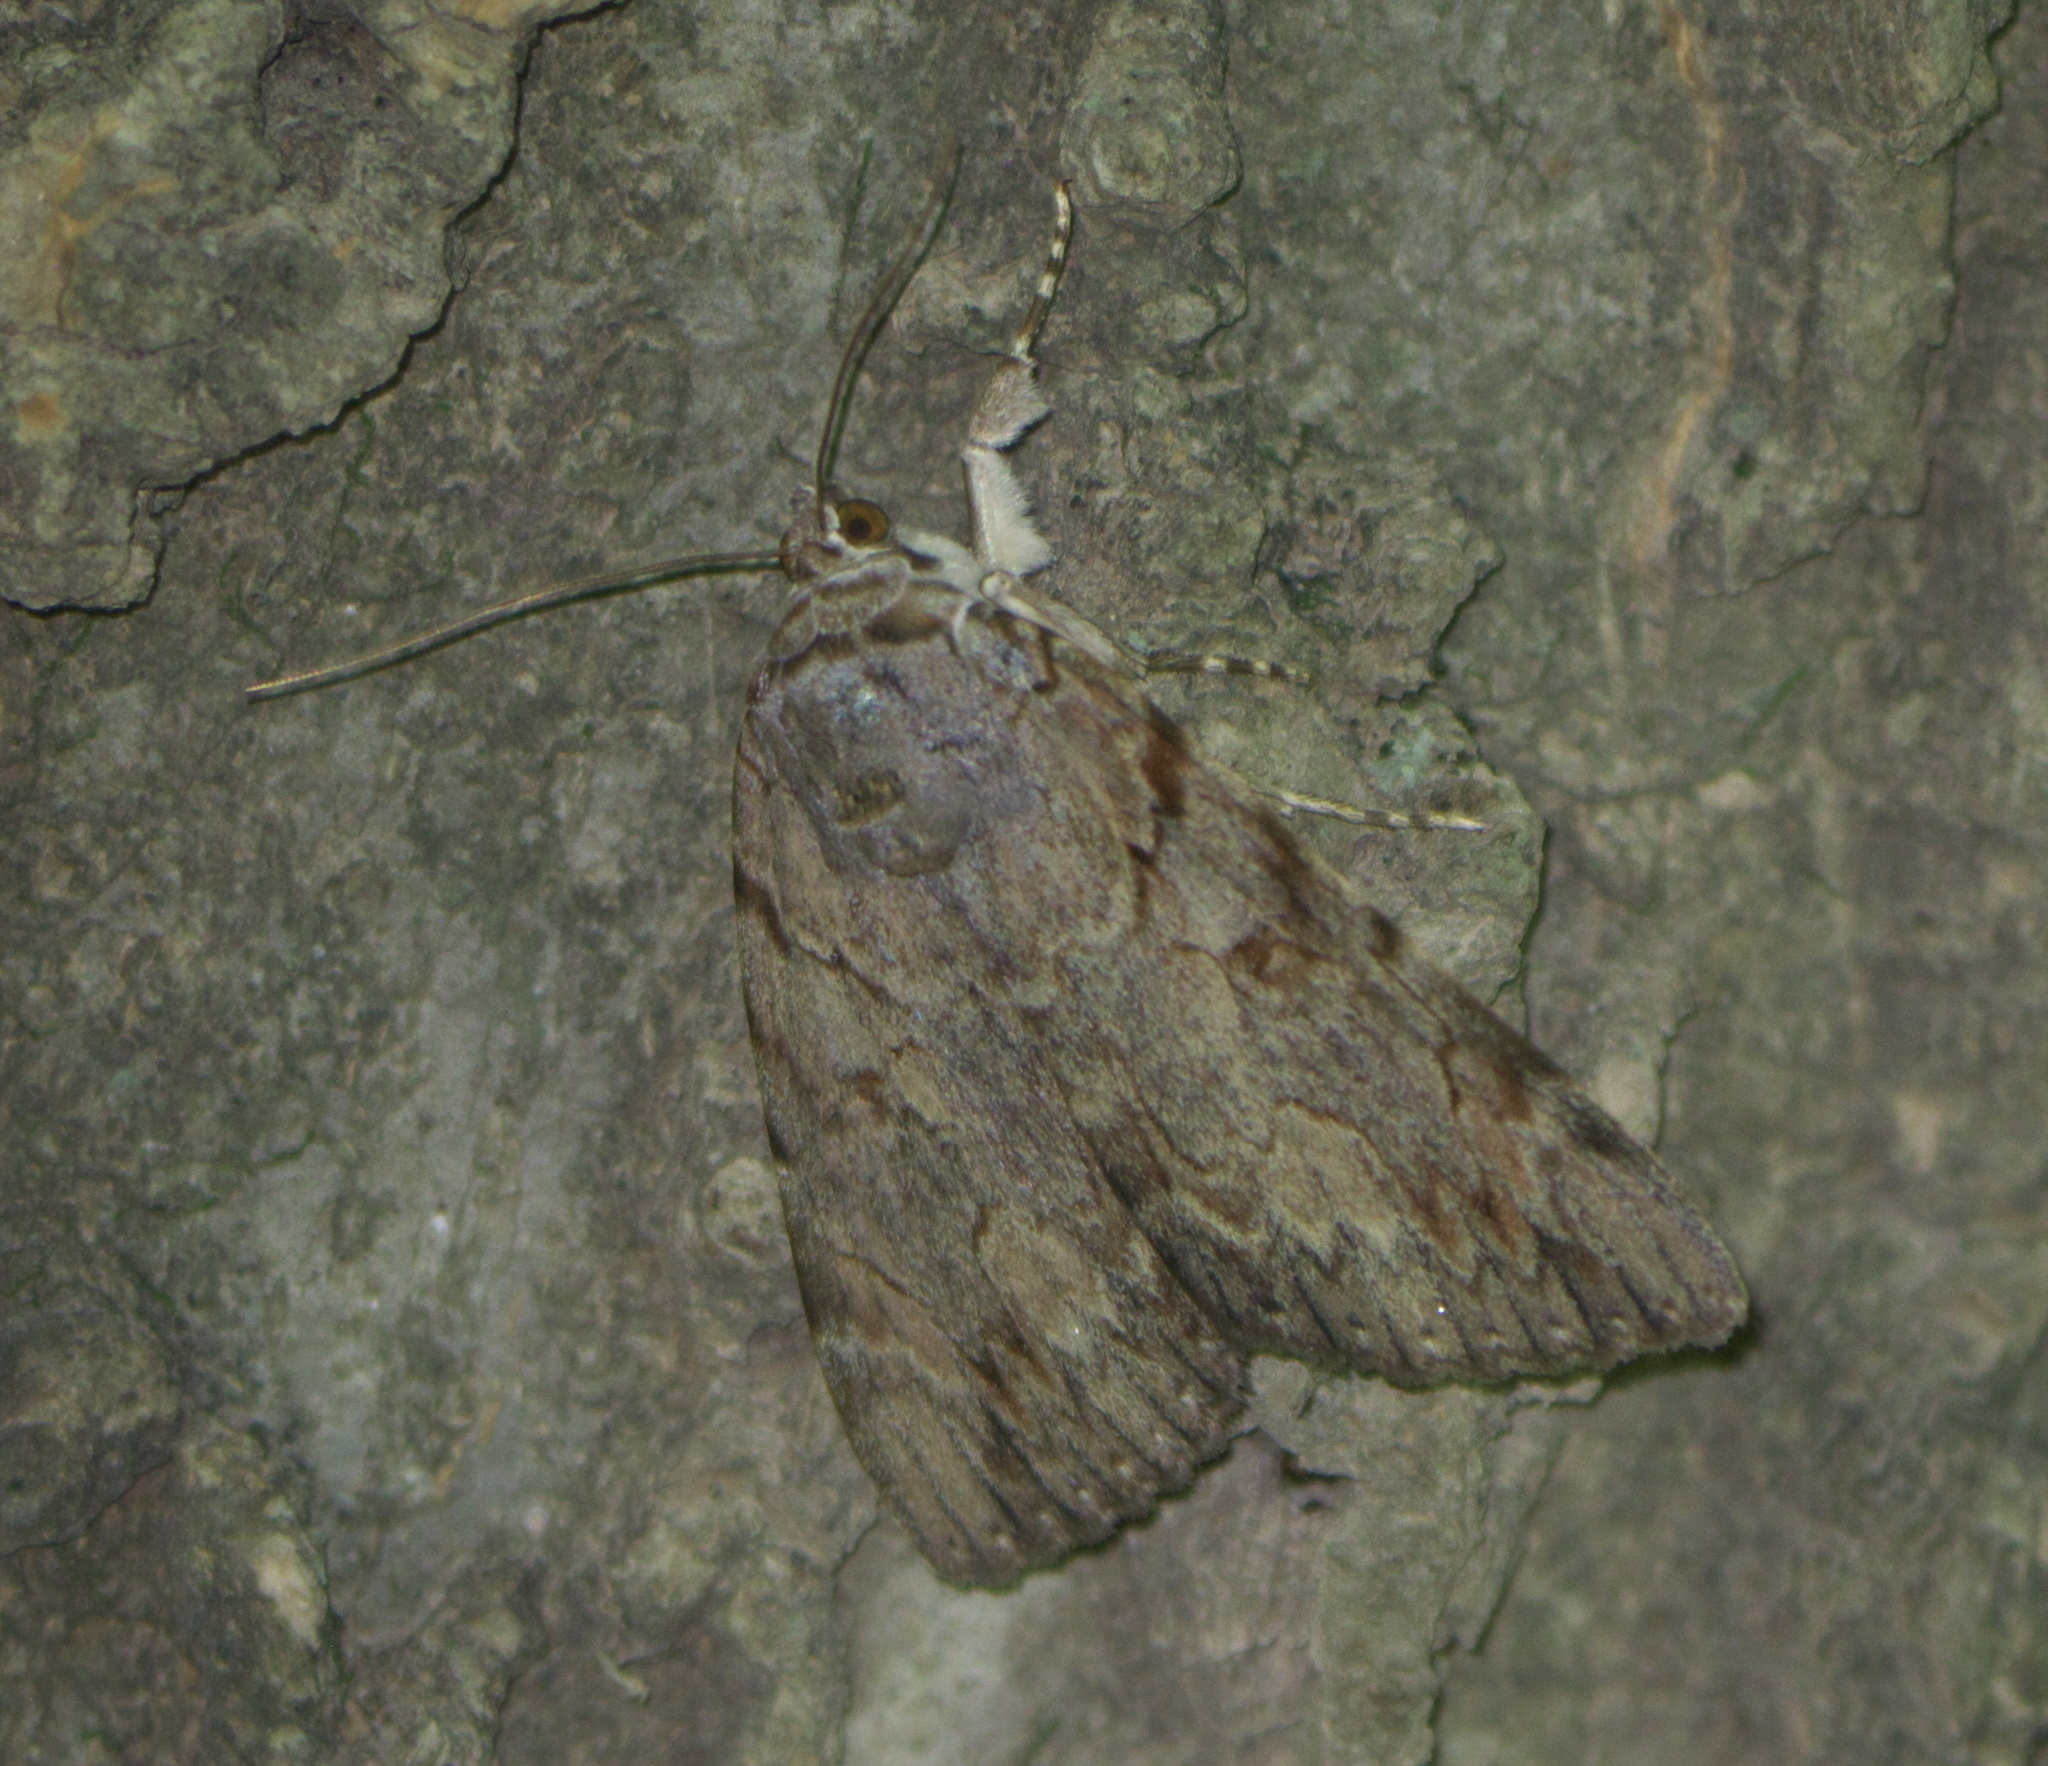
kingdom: Animalia
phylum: Arthropoda
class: Insecta
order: Lepidoptera
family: Erebidae
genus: Catocala
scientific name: Catocala agrippina
